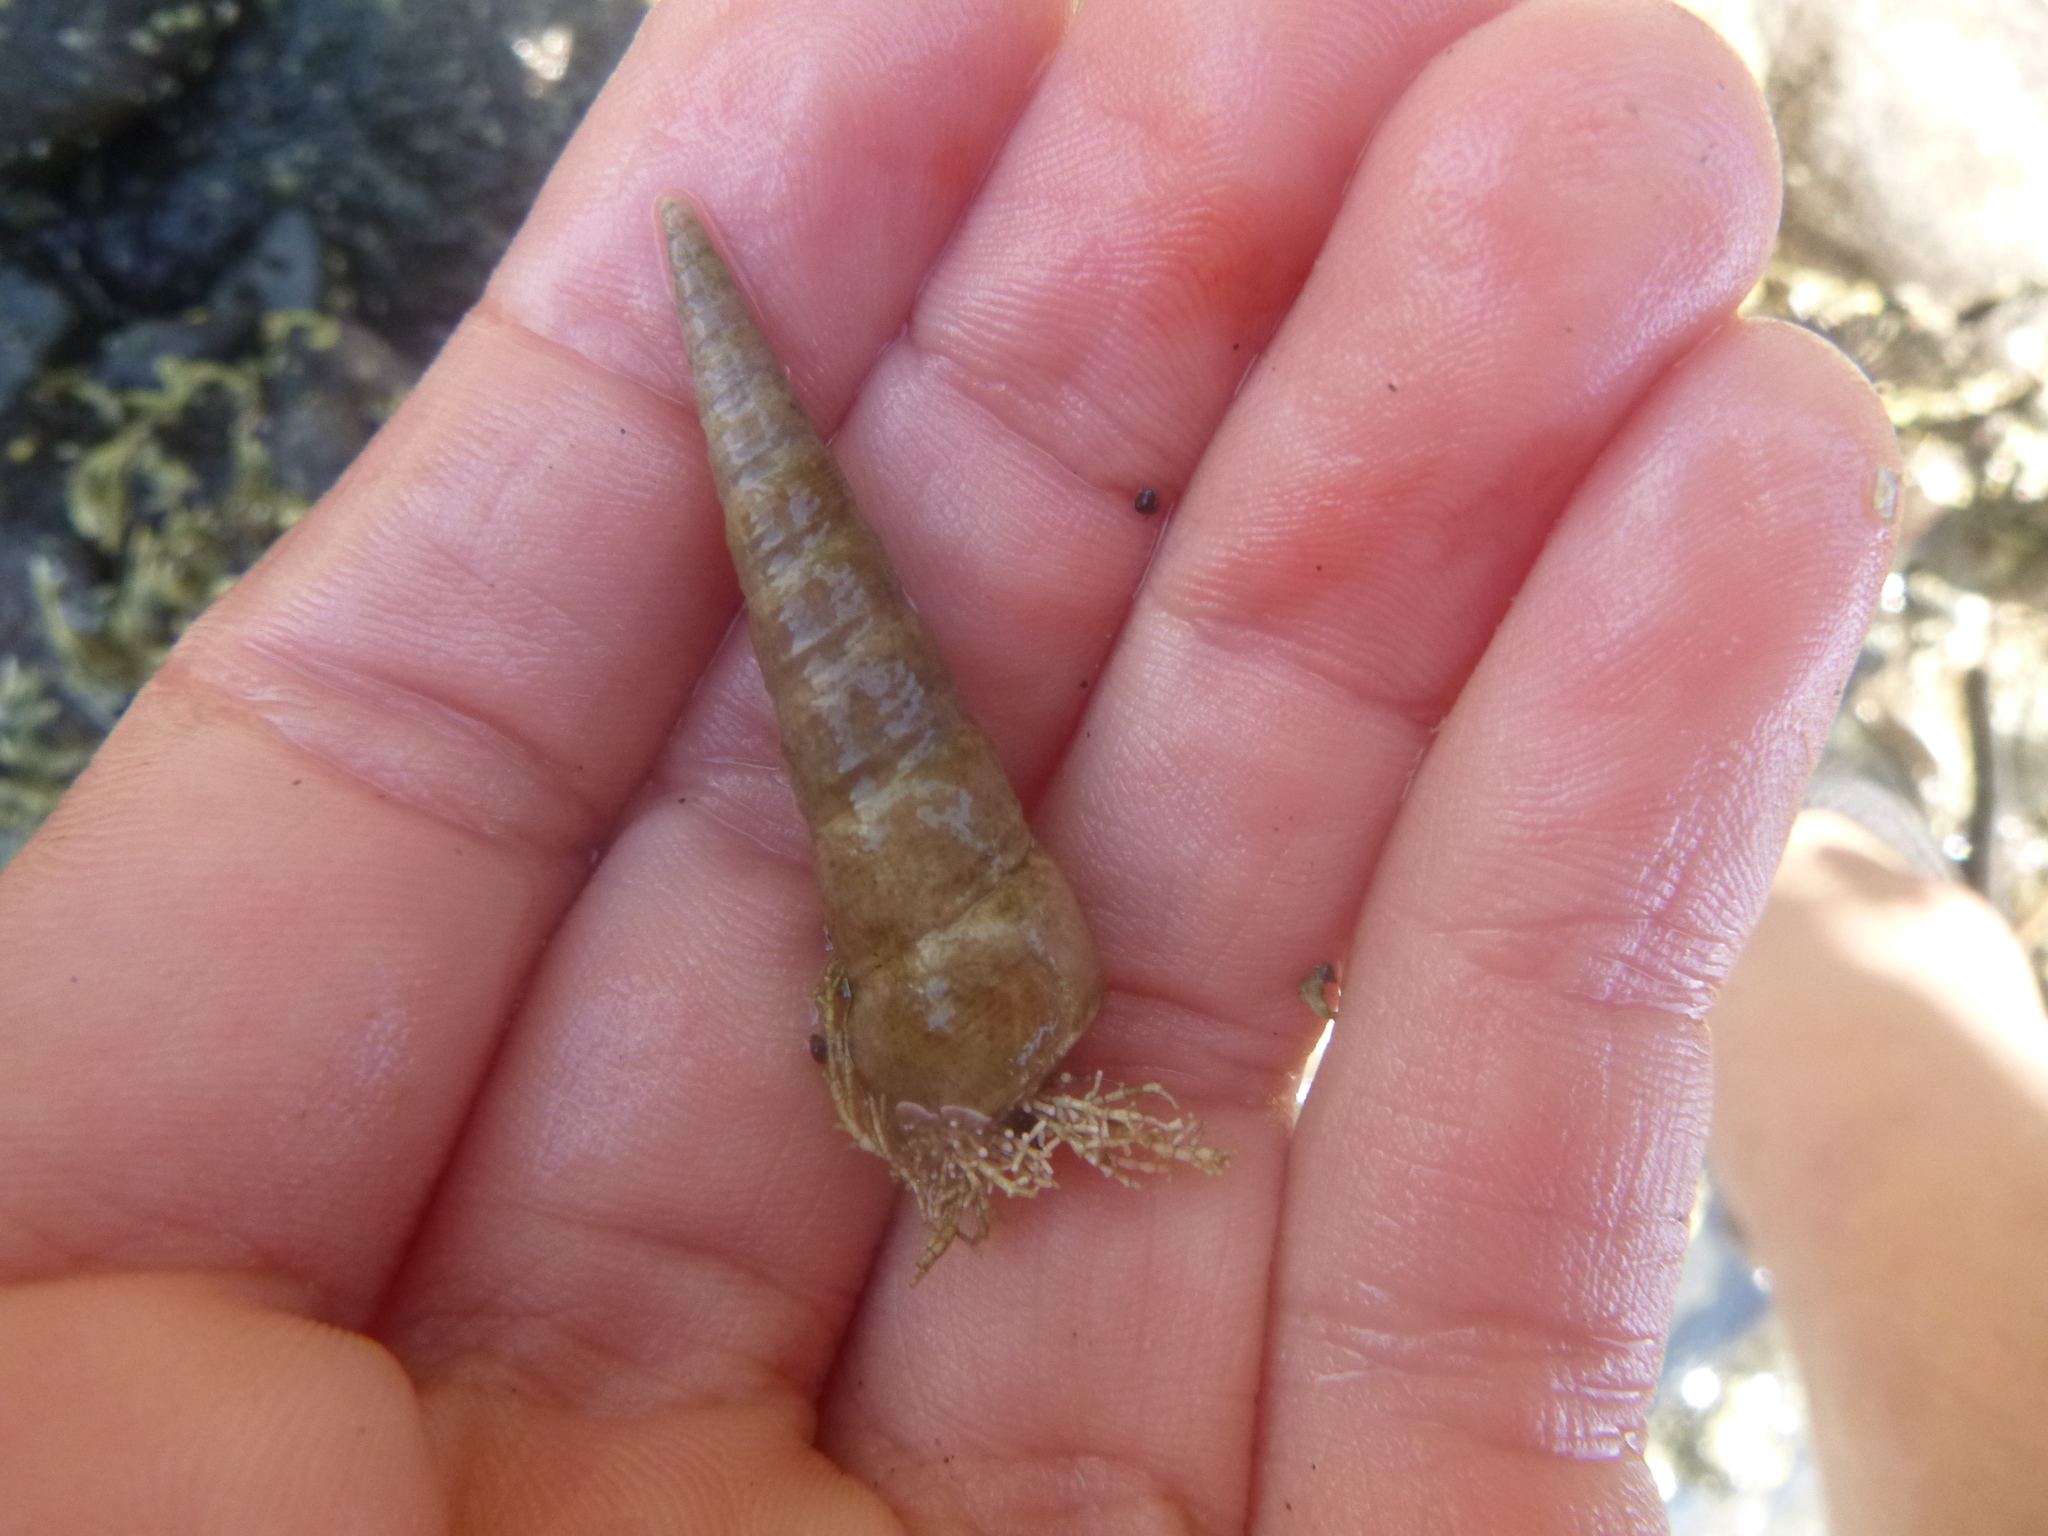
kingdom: Animalia
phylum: Mollusca
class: Gastropoda
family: Turritellidae
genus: Maoricolpus
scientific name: Maoricolpus roseus
